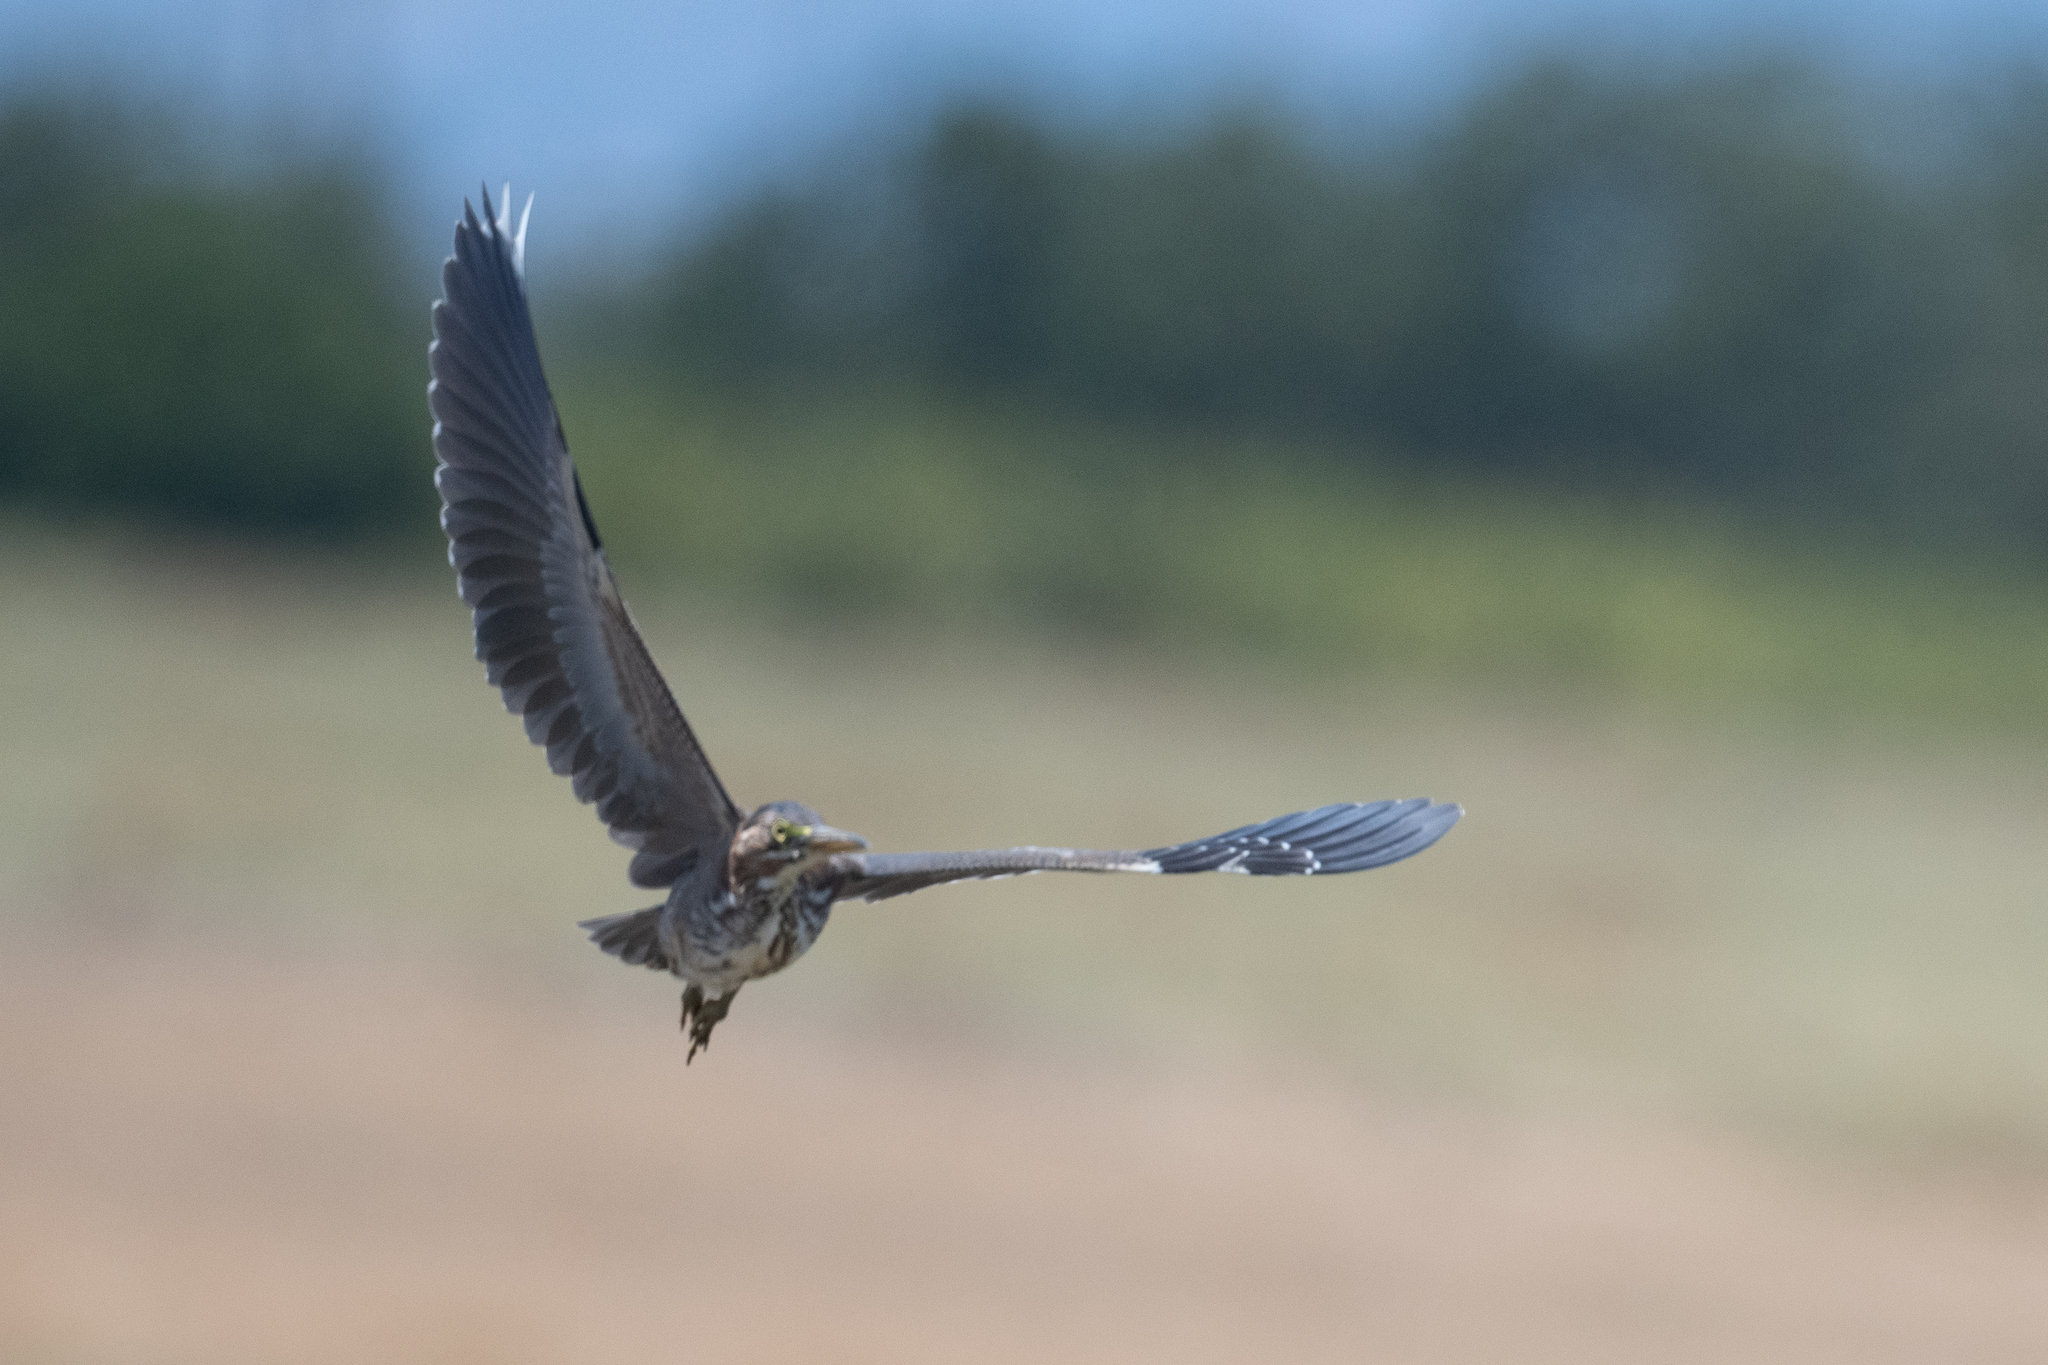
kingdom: Animalia
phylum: Chordata
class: Aves
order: Pelecaniformes
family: Ardeidae
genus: Butorides
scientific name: Butorides virescens
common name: Green heron
